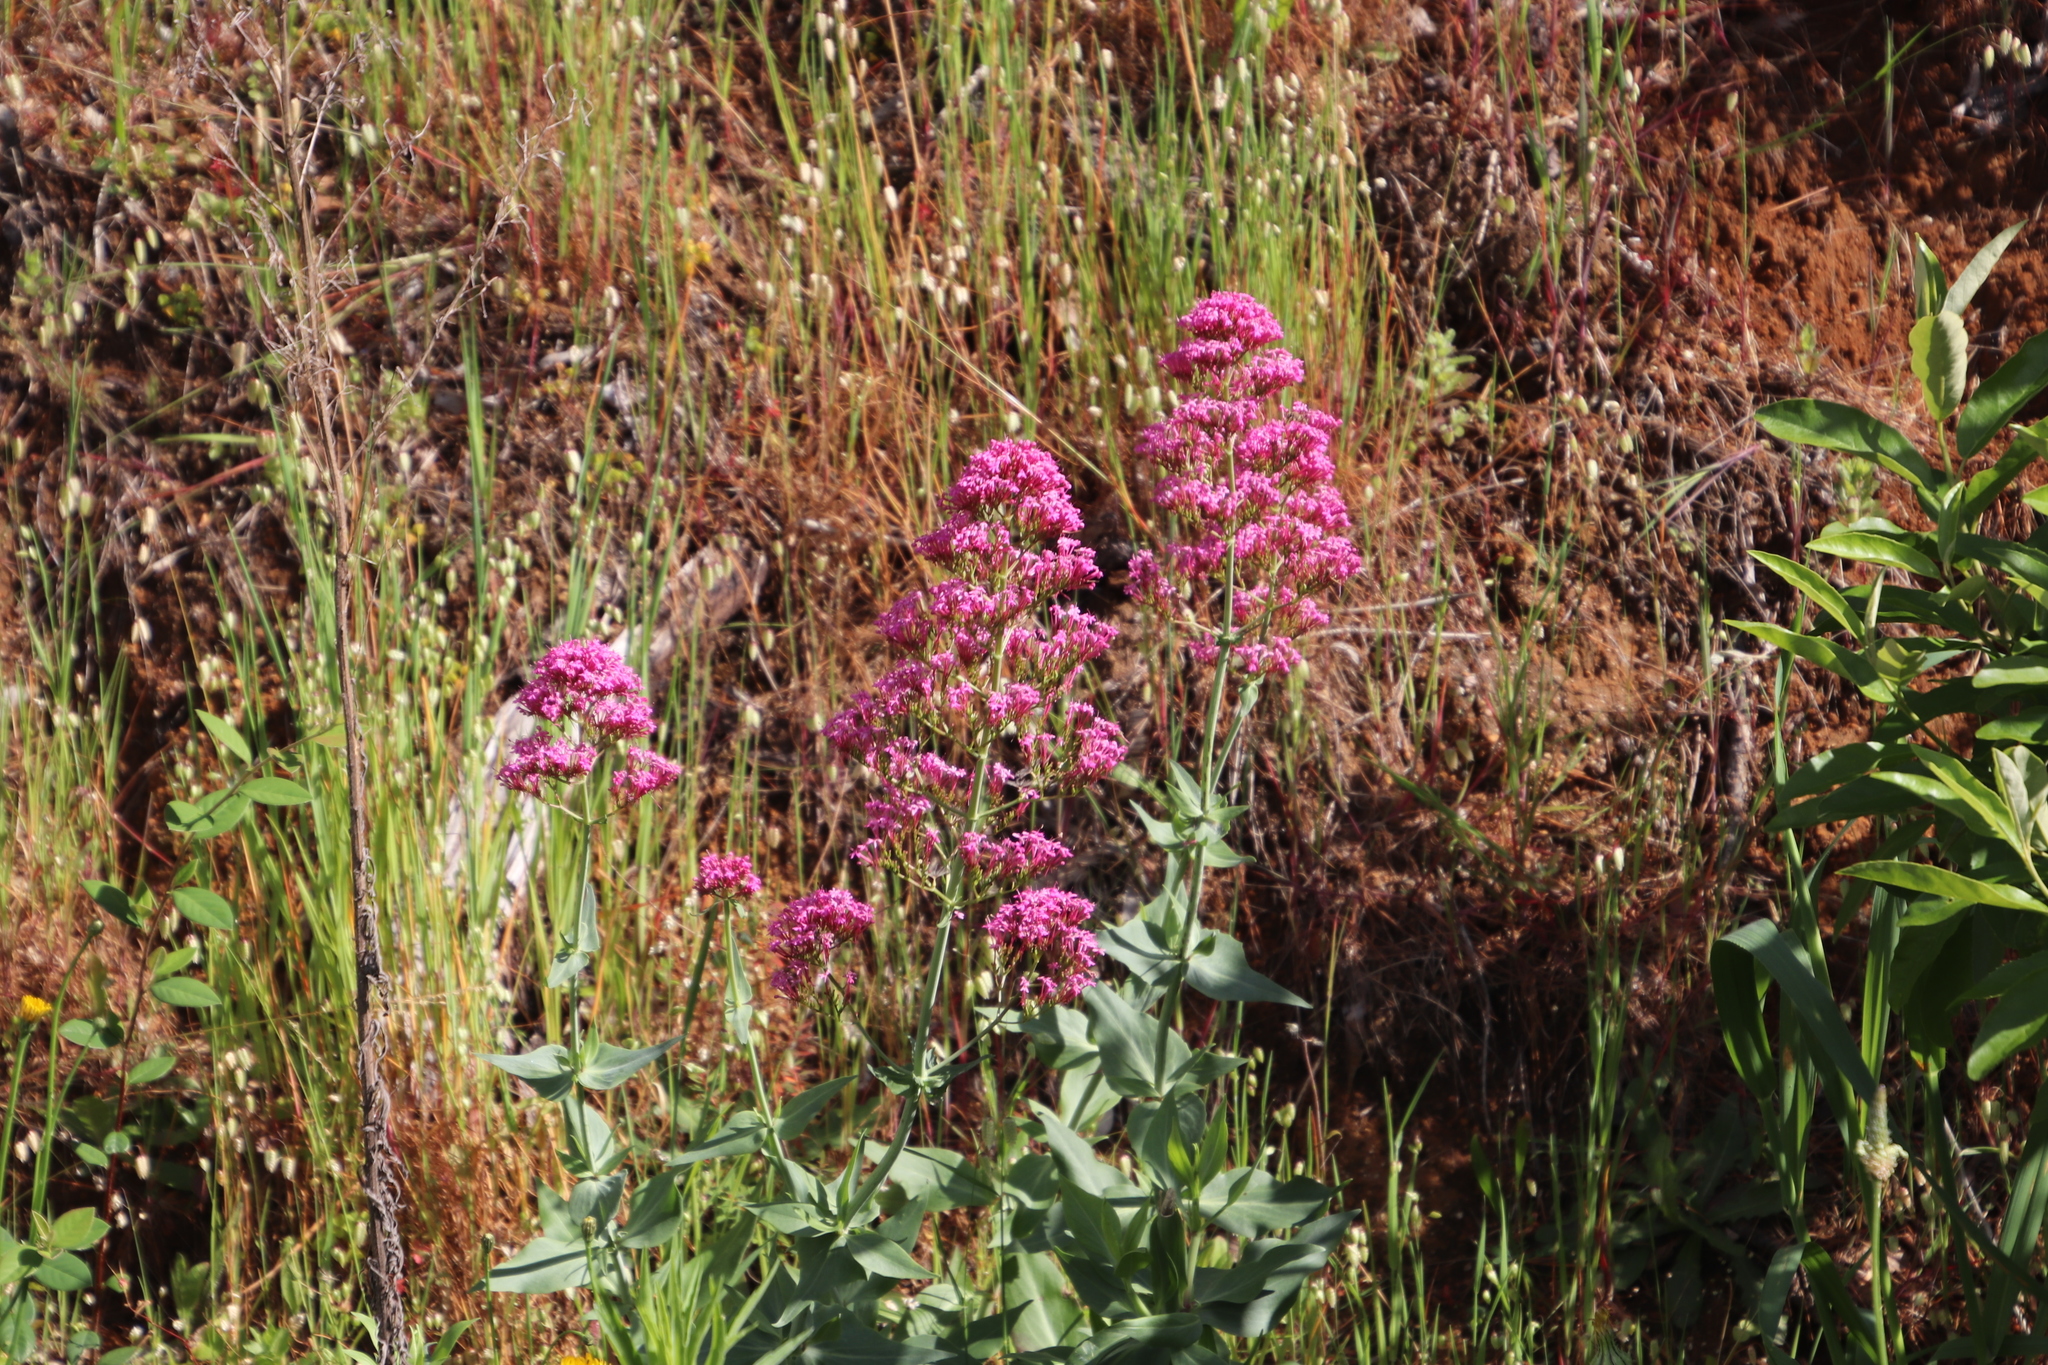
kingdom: Plantae
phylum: Tracheophyta
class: Magnoliopsida
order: Dipsacales
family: Caprifoliaceae
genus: Centranthus
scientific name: Centranthus ruber
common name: Red valerian
